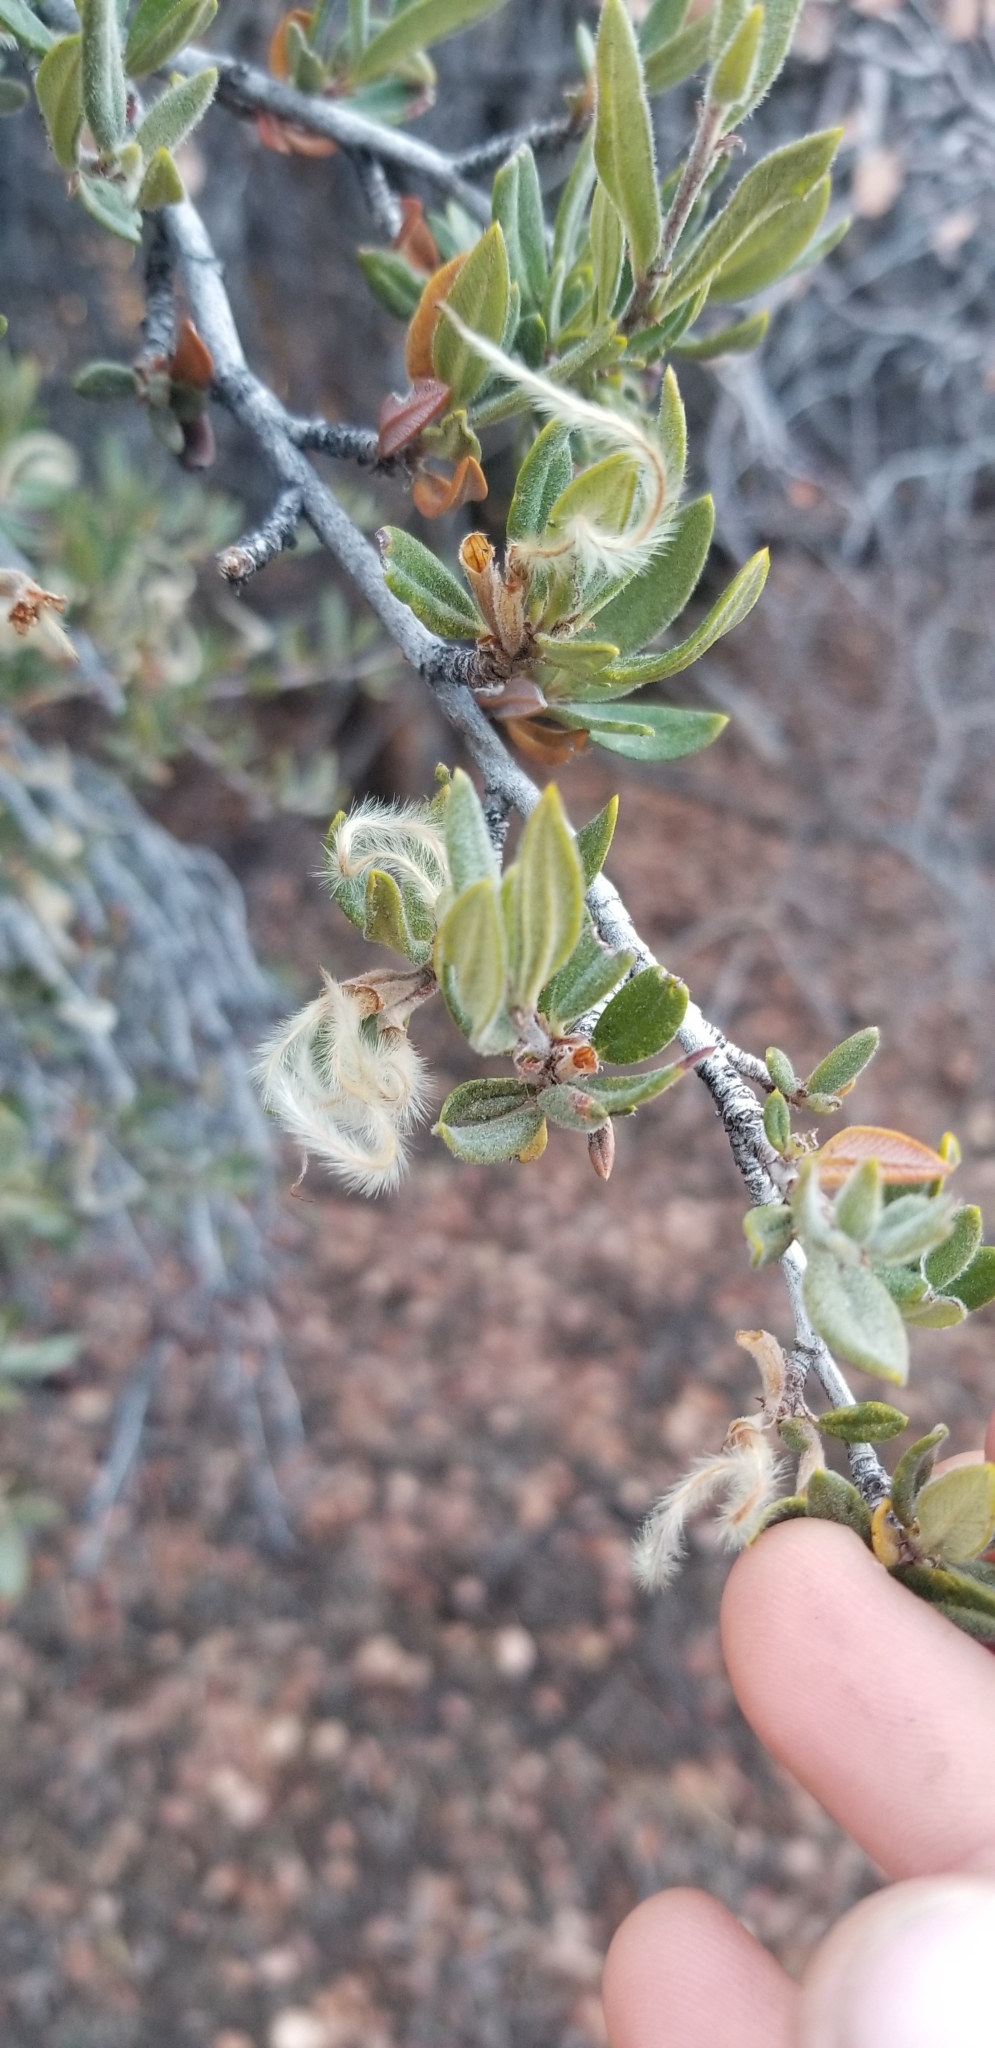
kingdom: Plantae
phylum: Tracheophyta
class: Magnoliopsida
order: Rosales
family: Rosaceae
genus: Cercocarpus
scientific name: Cercocarpus ledifolius
